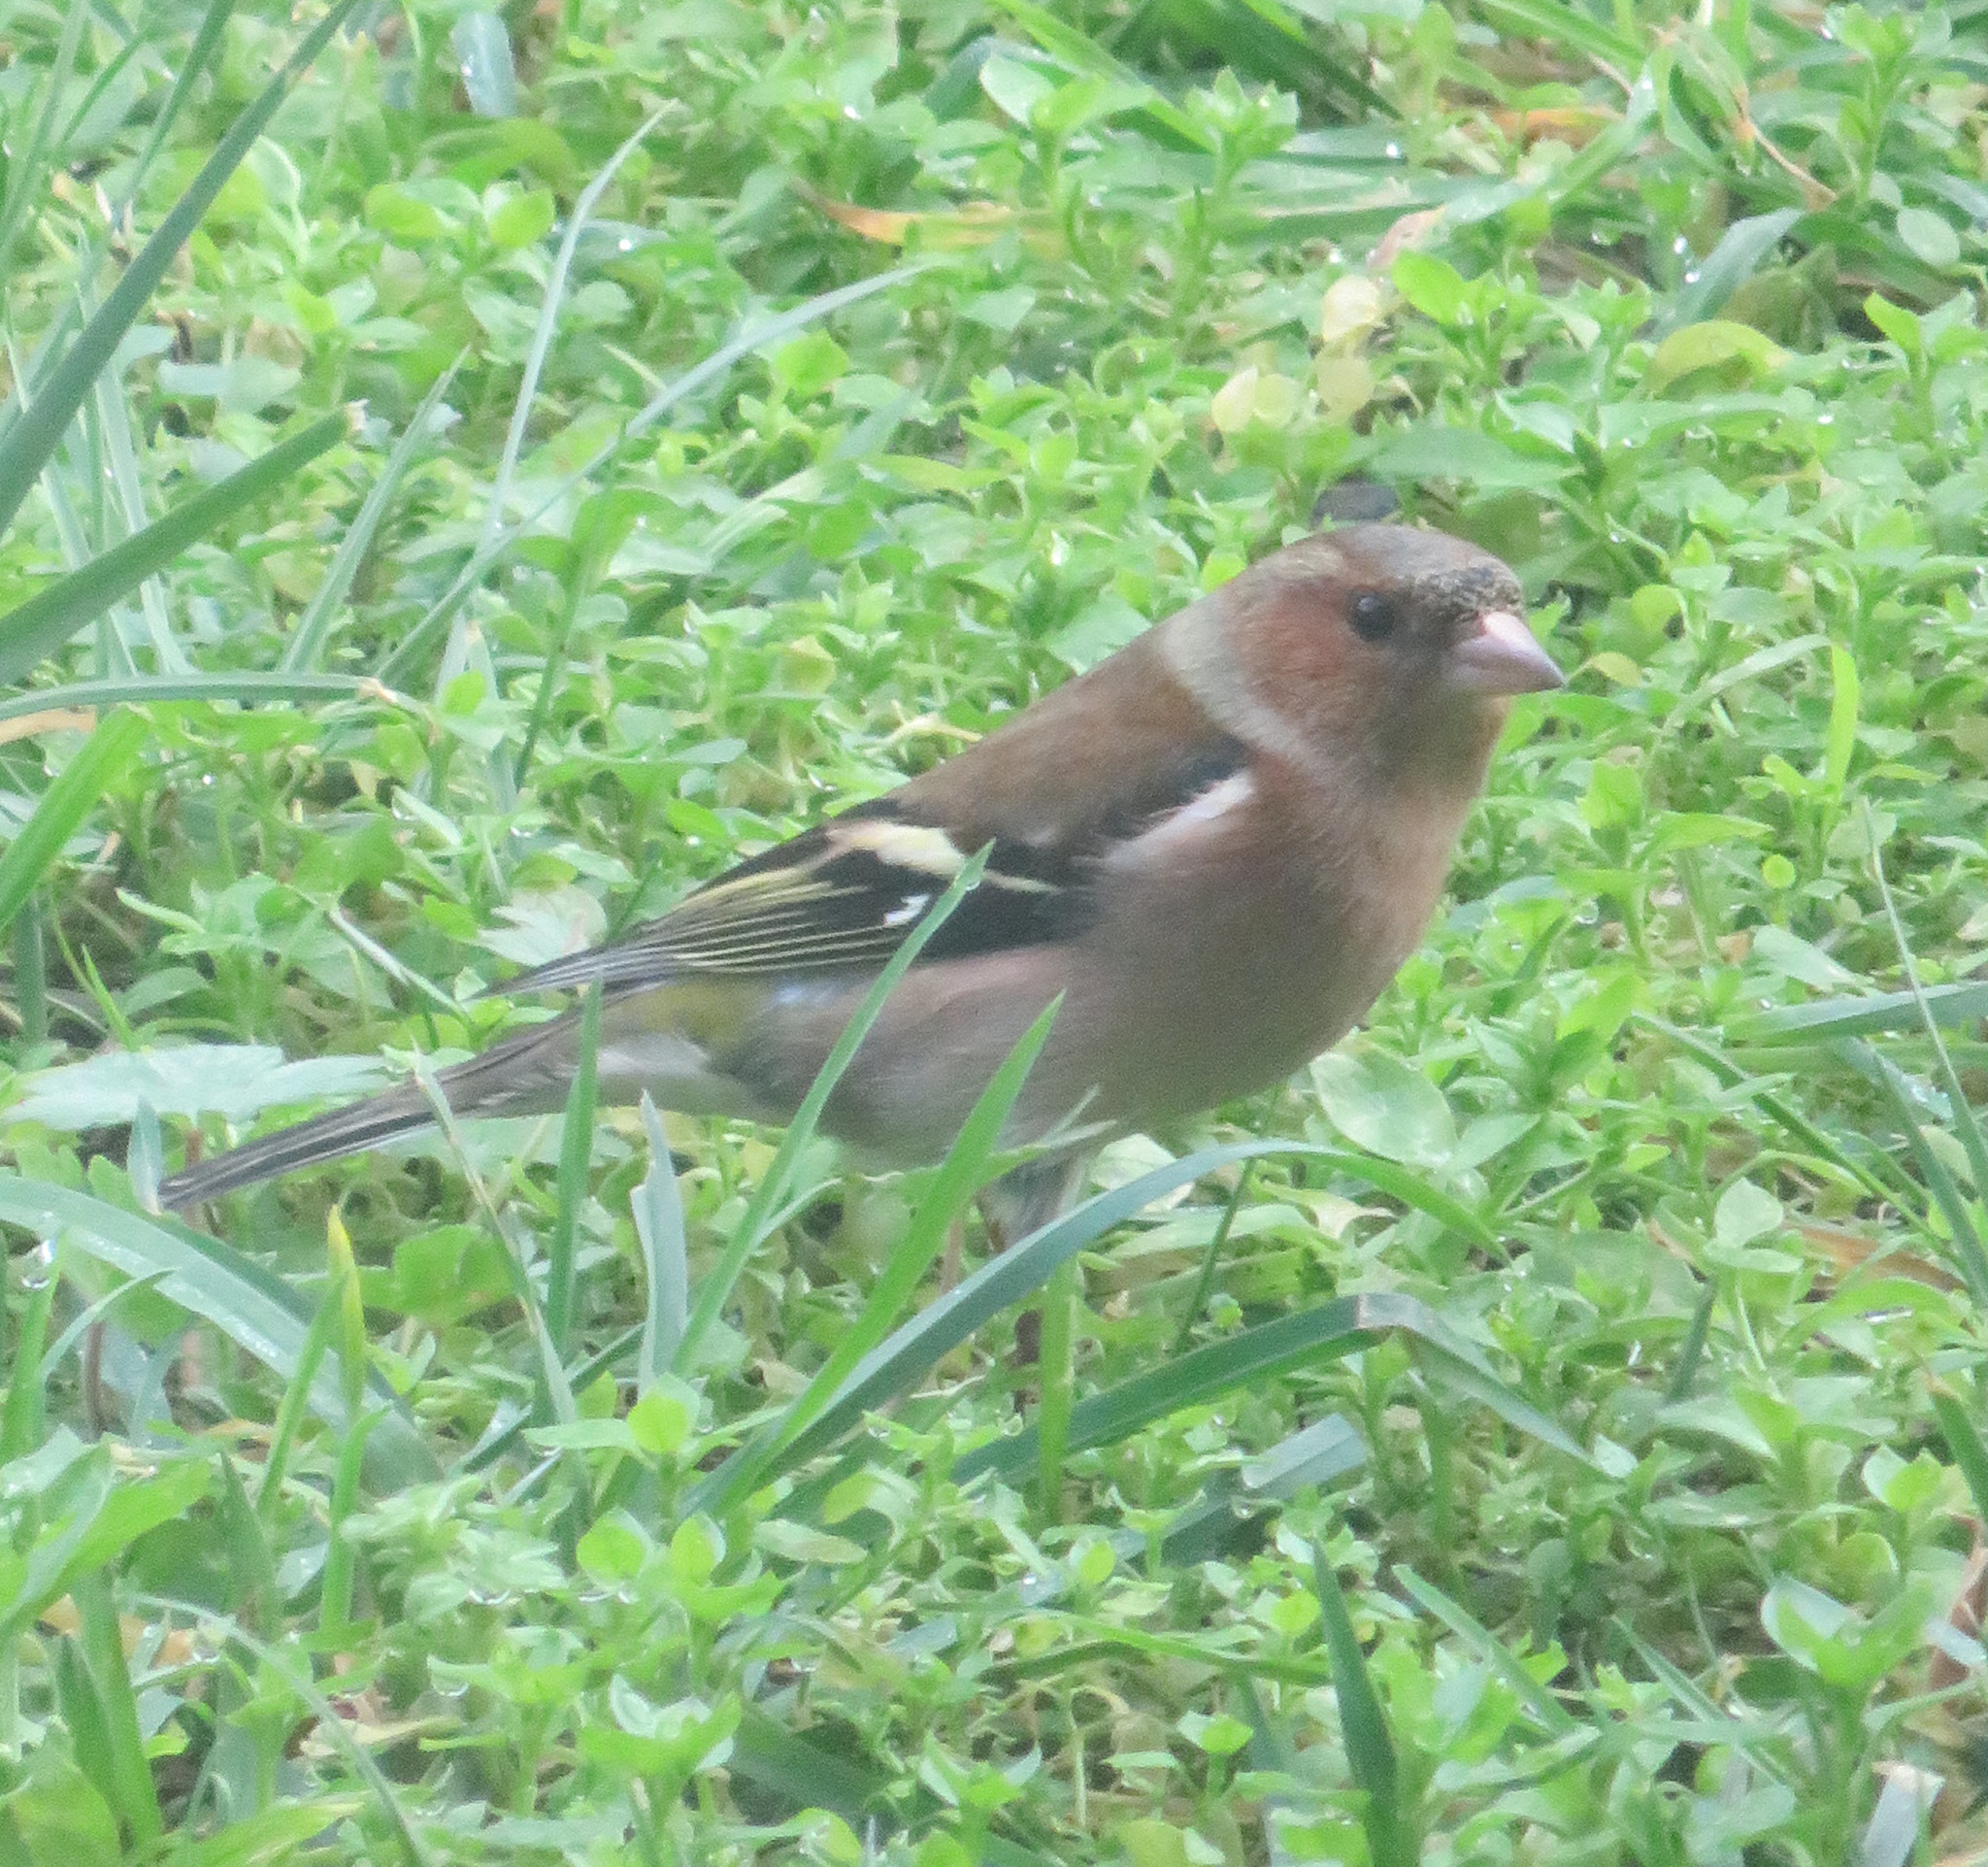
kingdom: Animalia
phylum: Chordata
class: Aves
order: Passeriformes
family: Fringillidae
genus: Fringilla
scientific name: Fringilla coelebs
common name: Common chaffinch
